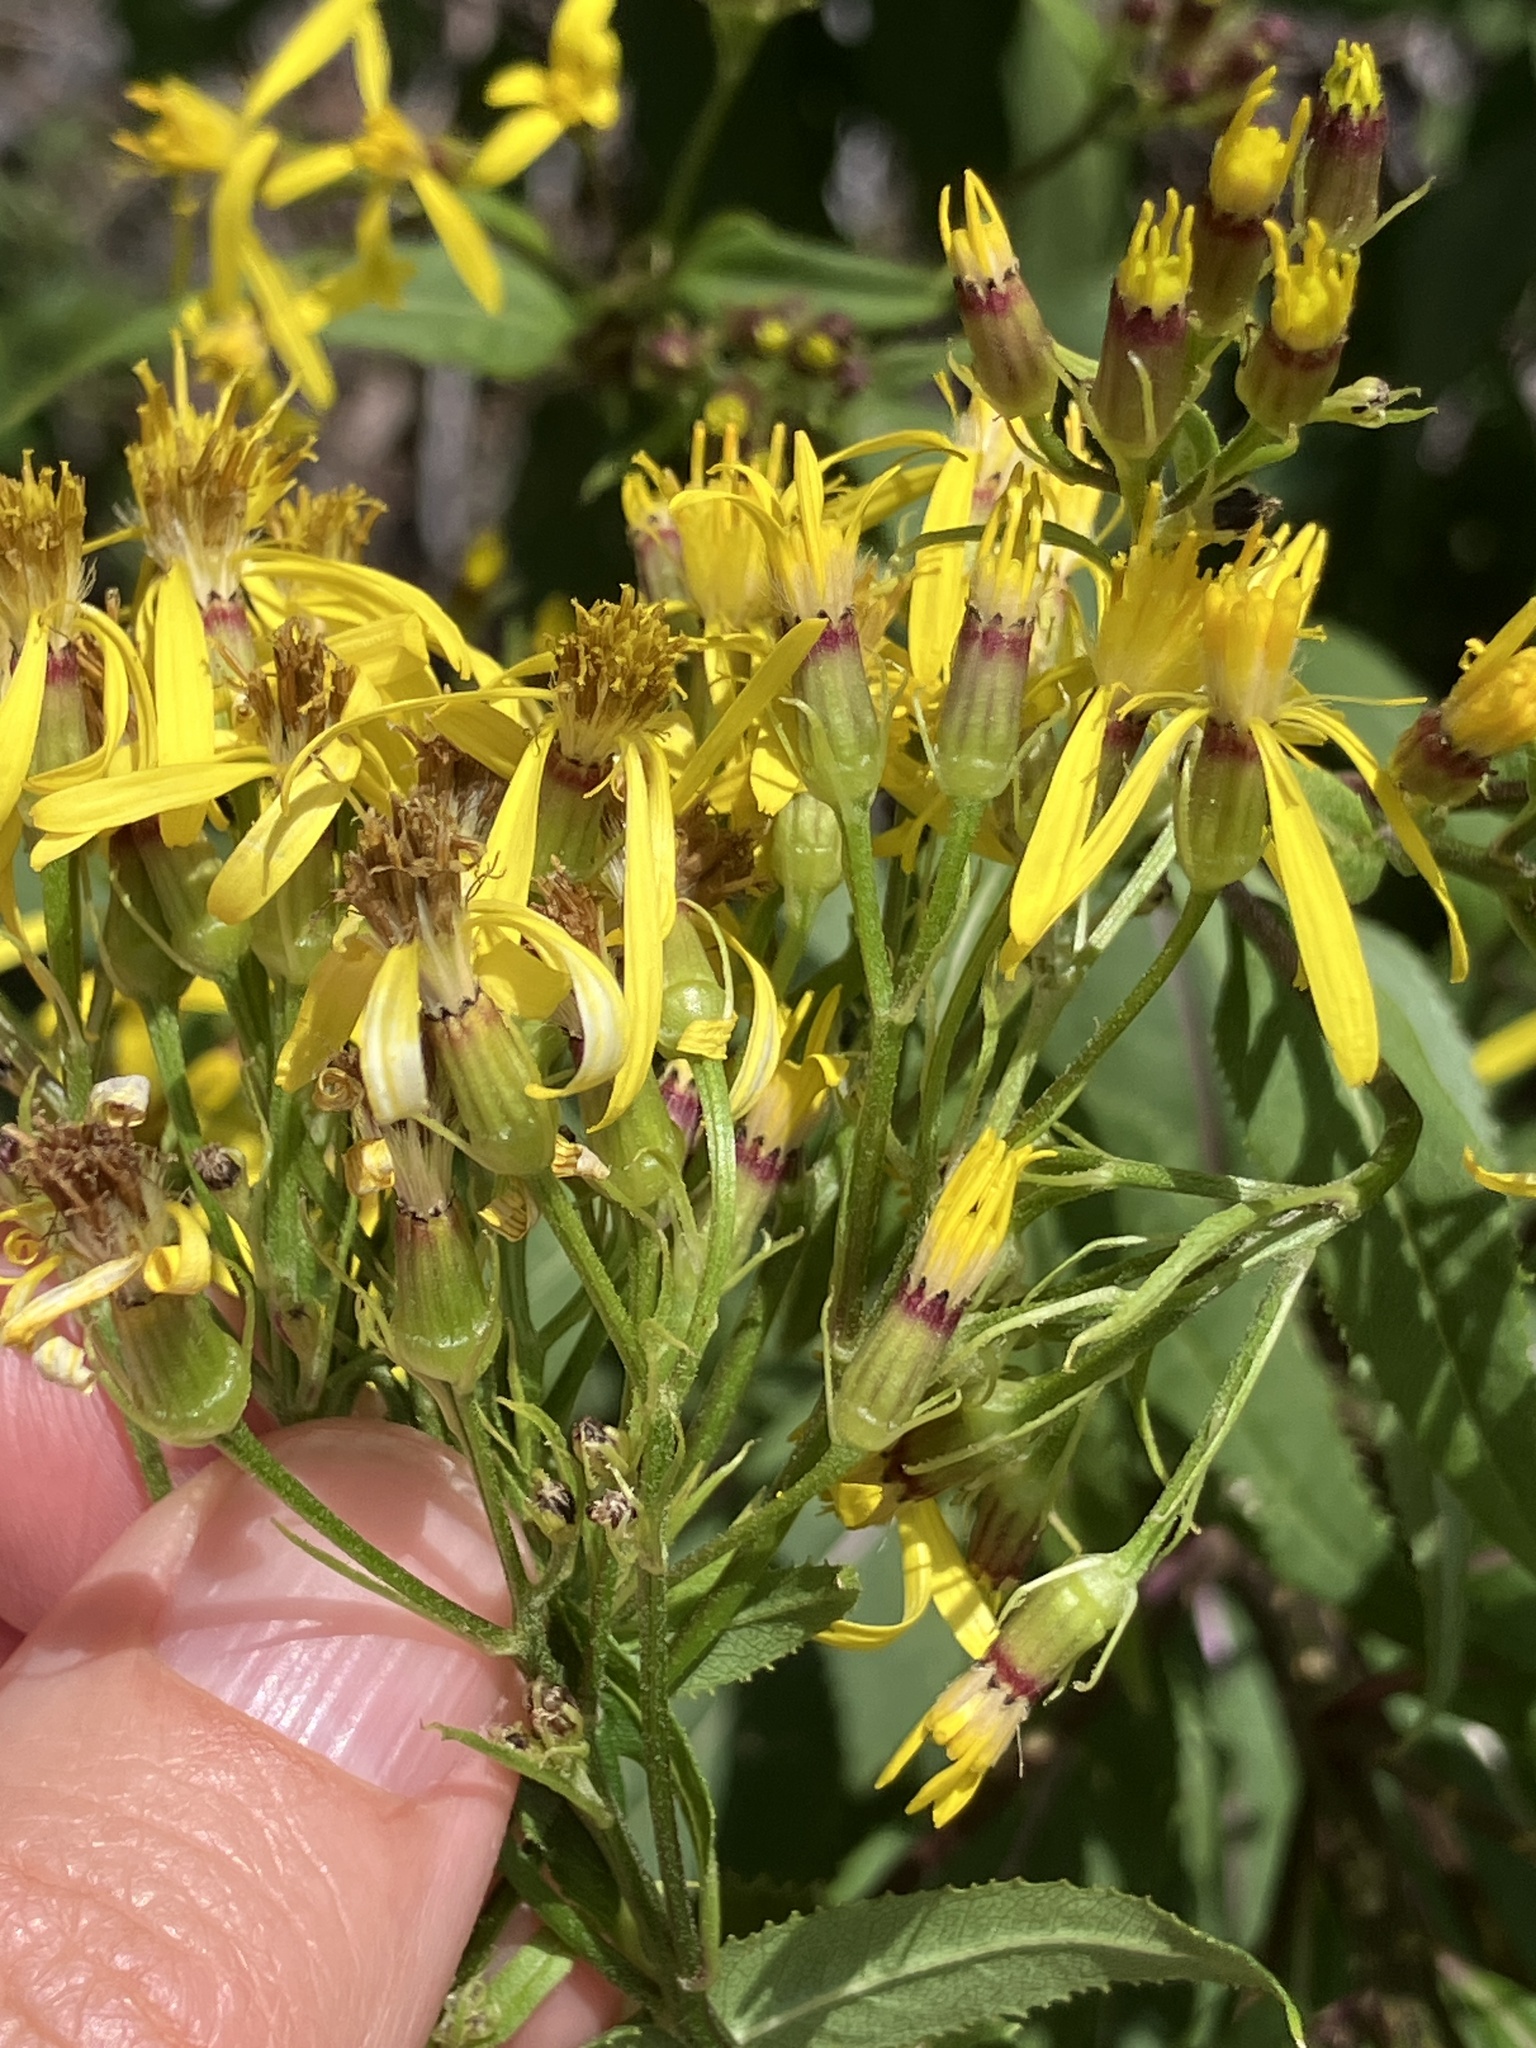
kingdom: Plantae
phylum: Tracheophyta
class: Magnoliopsida
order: Asterales
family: Asteraceae
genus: Senecio
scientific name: Senecio ovatus
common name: Wood ragwort
